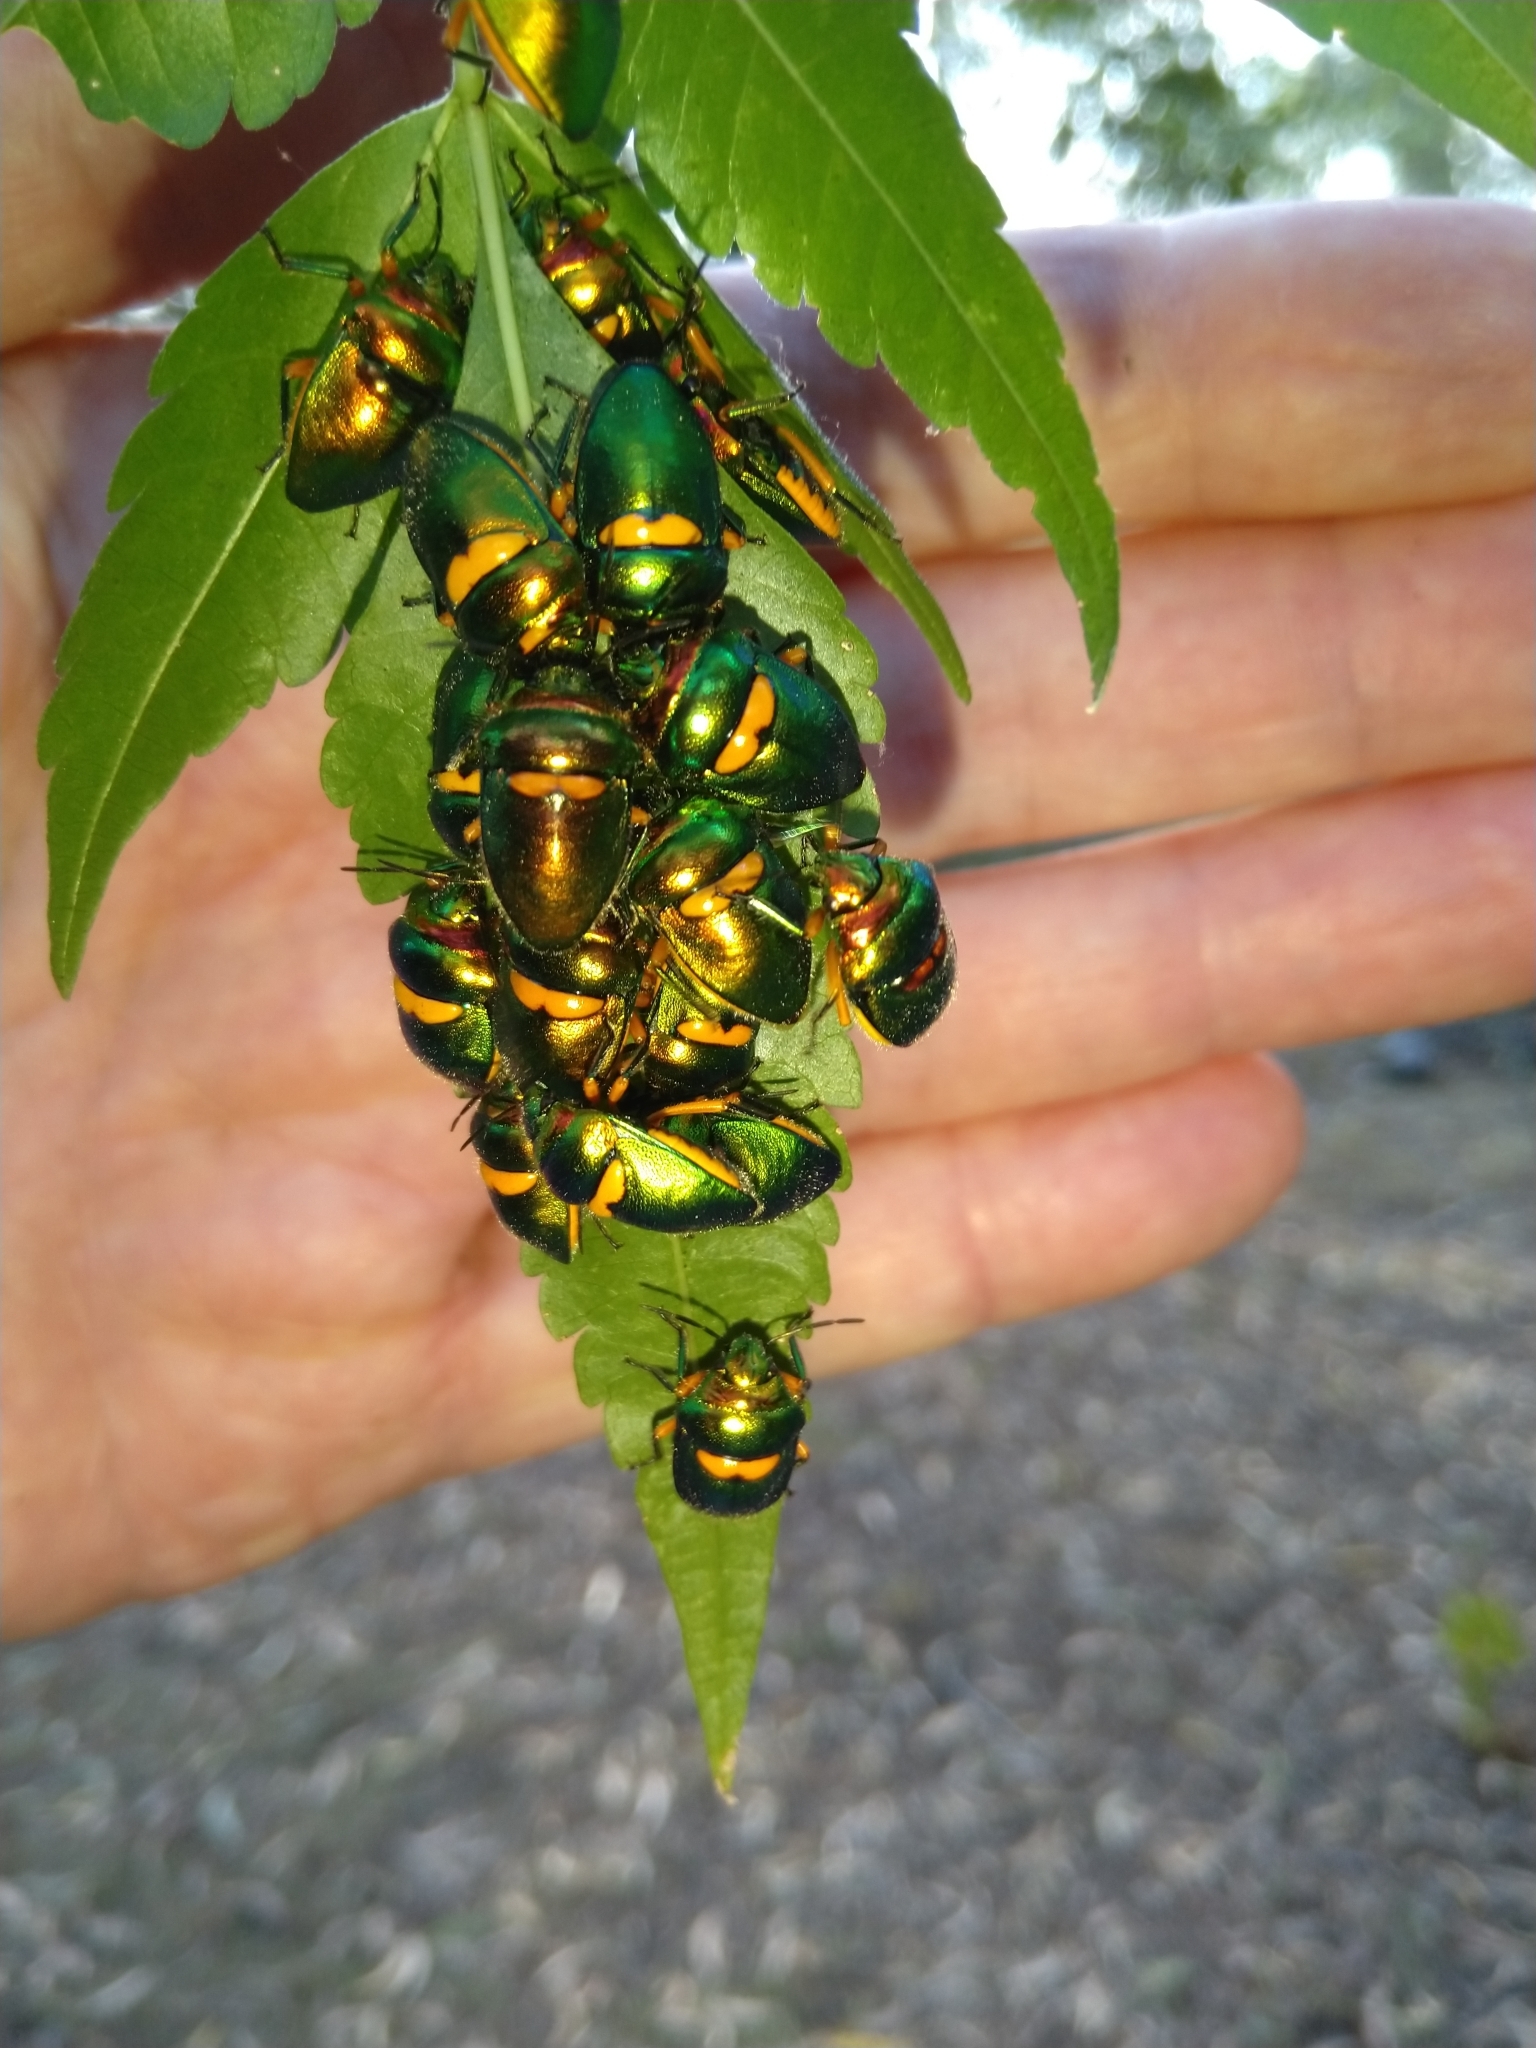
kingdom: Animalia
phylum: Arthropoda
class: Insecta
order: Hemiptera
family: Scutelleridae
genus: Lampromicra
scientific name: Lampromicra senator
